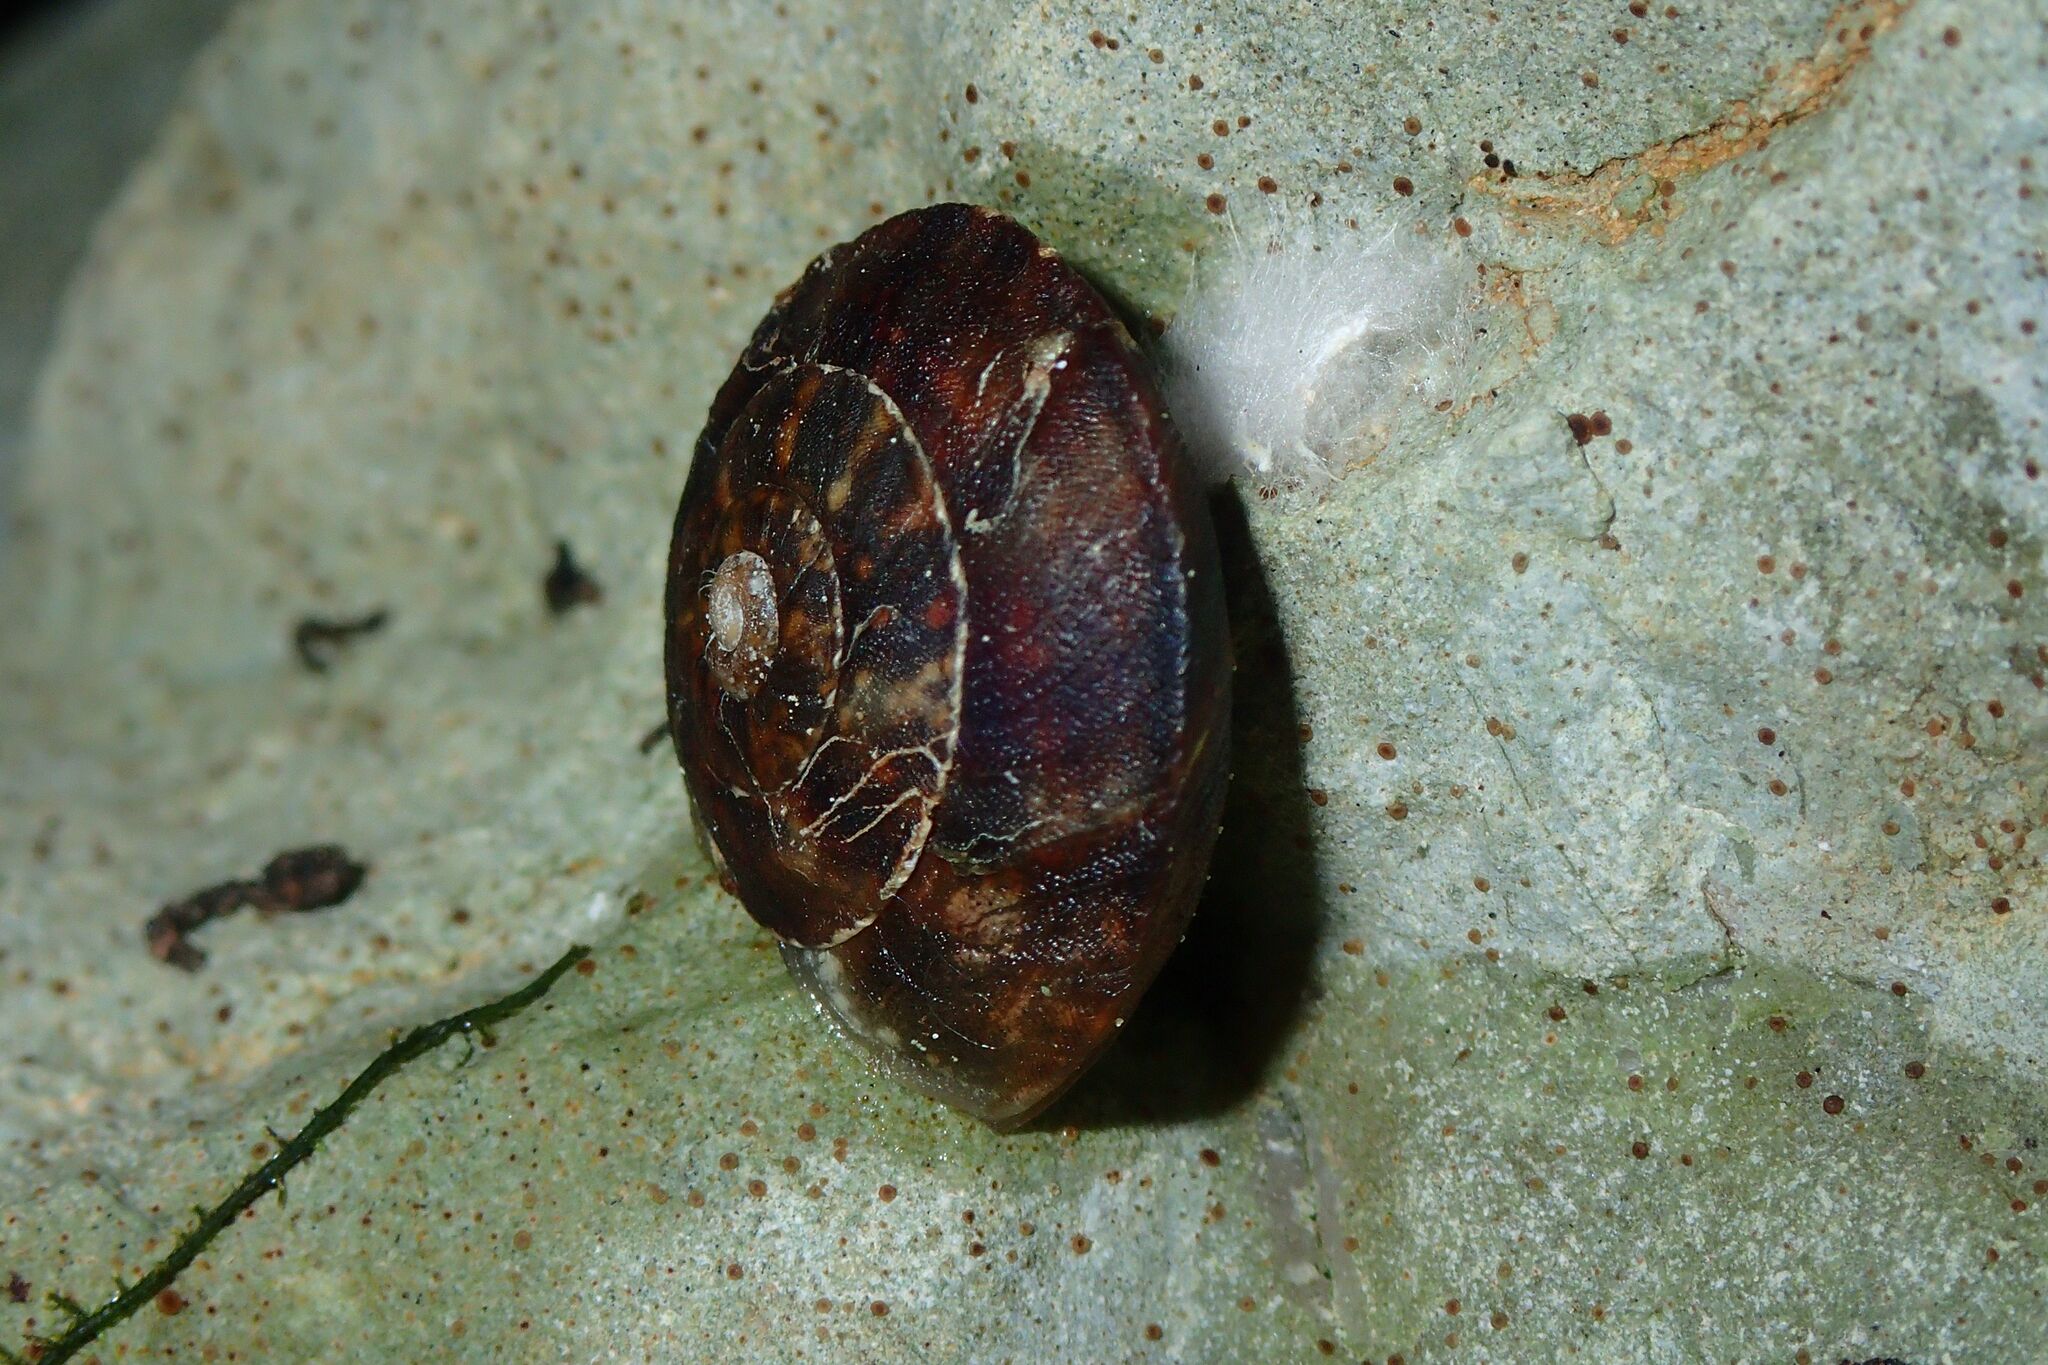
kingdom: Animalia
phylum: Mollusca
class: Gastropoda
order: Stylommatophora
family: Helicidae
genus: Helicigona
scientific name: Helicigona lapicida
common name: Lapidary snail
